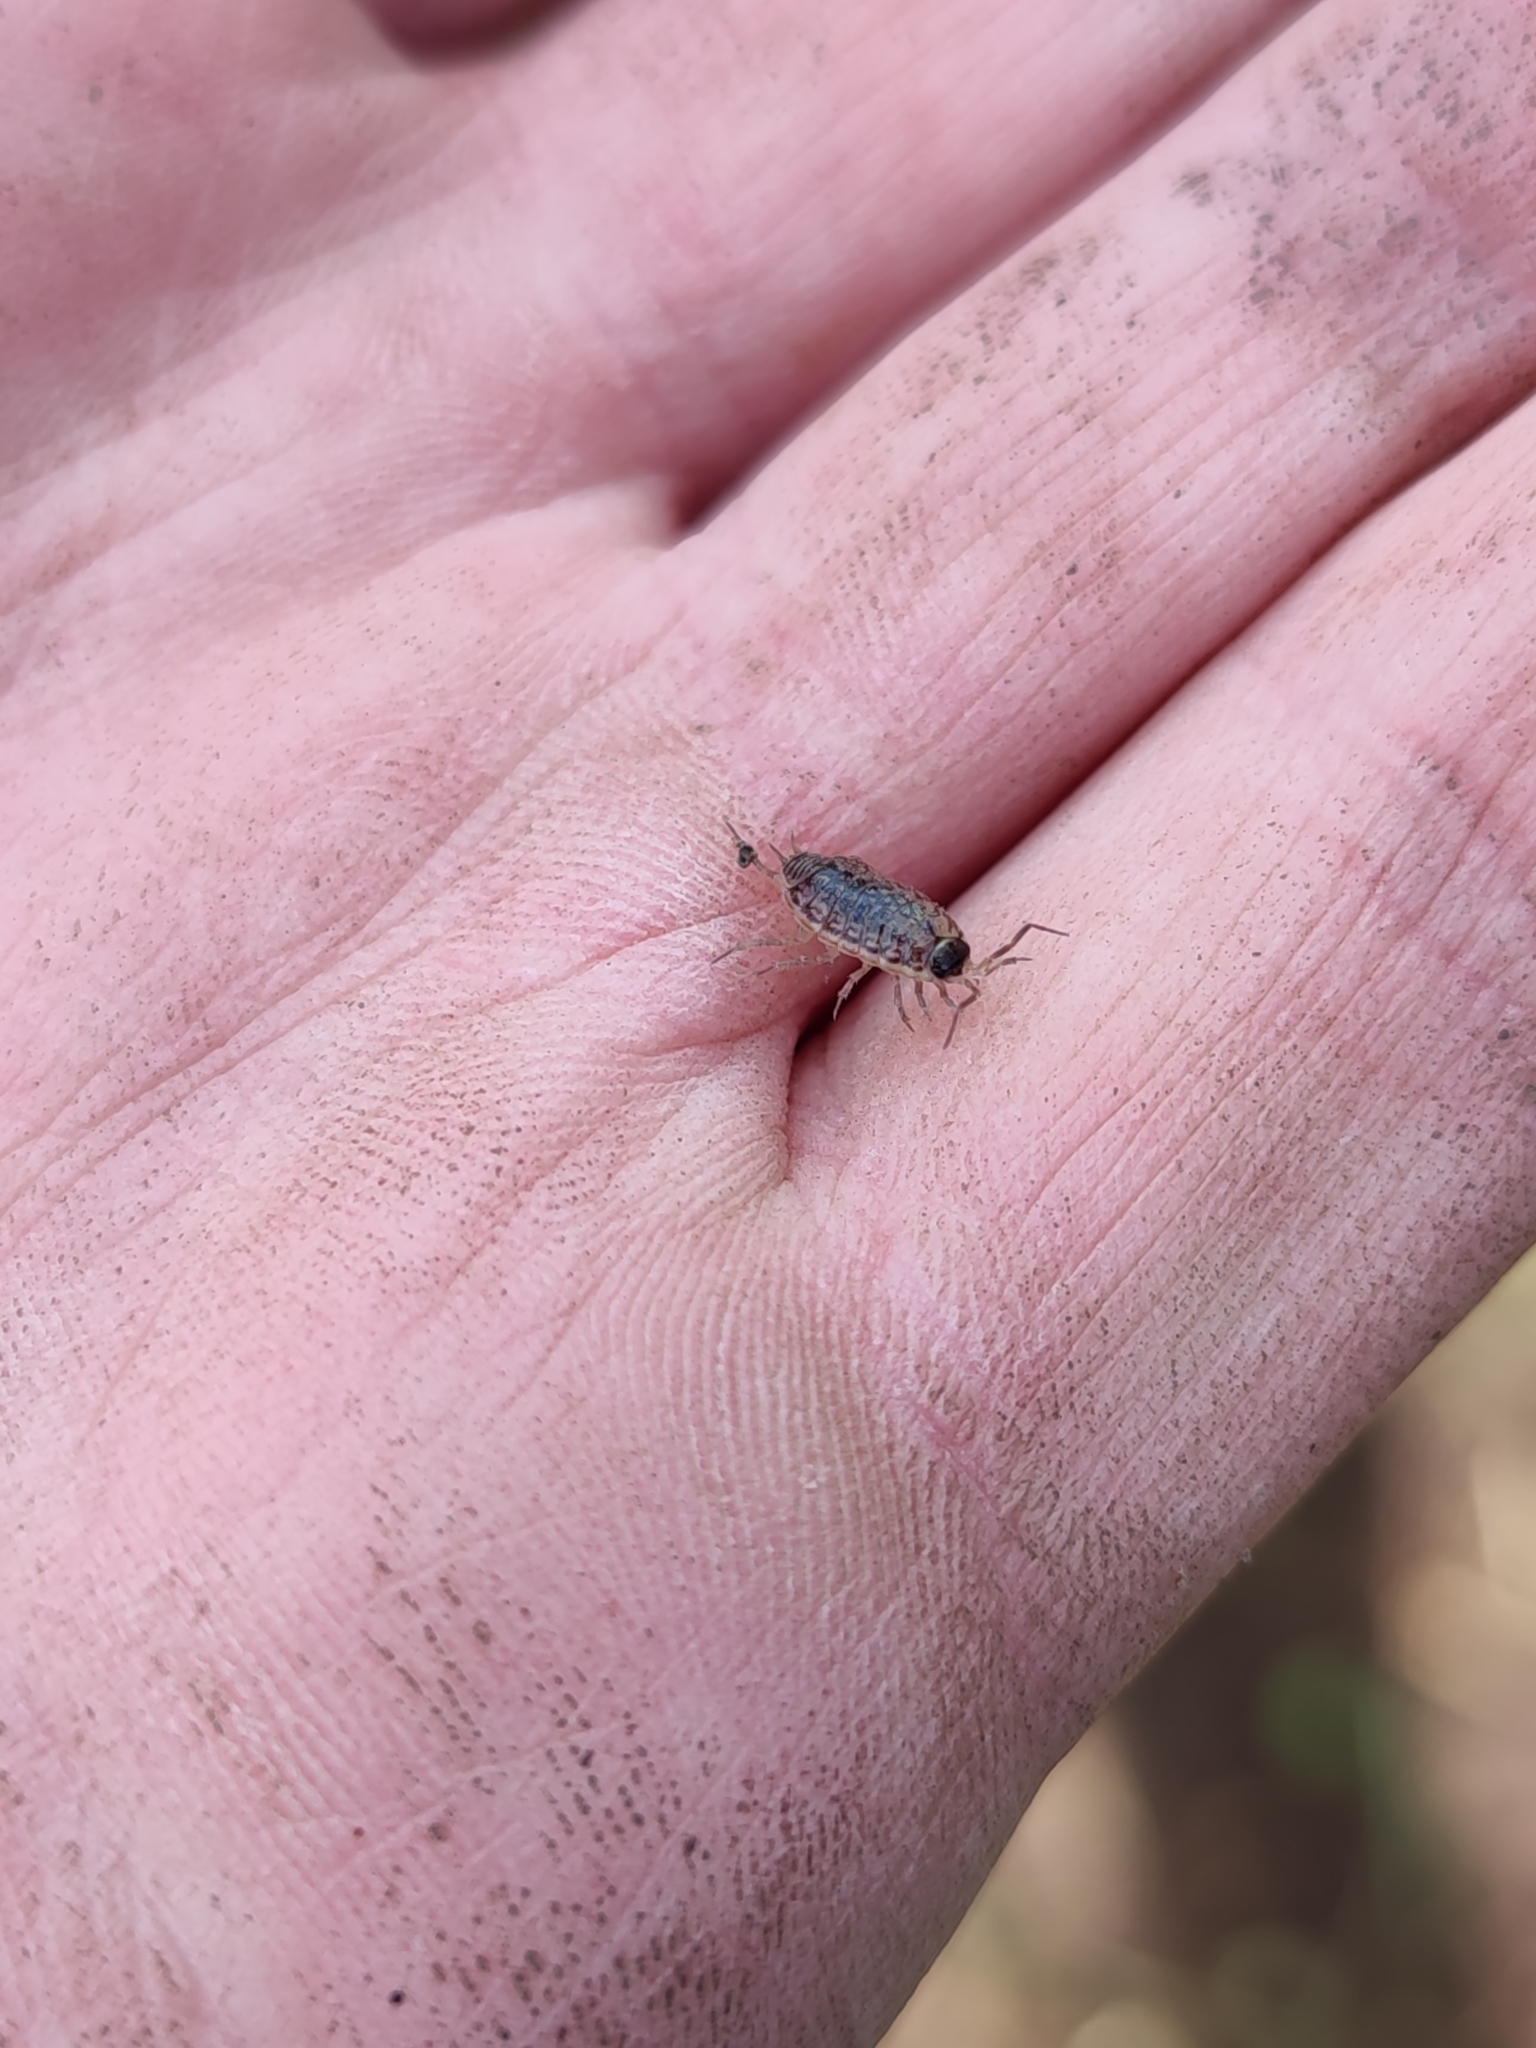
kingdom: Animalia
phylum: Arthropoda
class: Malacostraca
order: Isopoda
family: Philosciidae
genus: Philoscia
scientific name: Philoscia muscorum
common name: Common striped woodlouse
